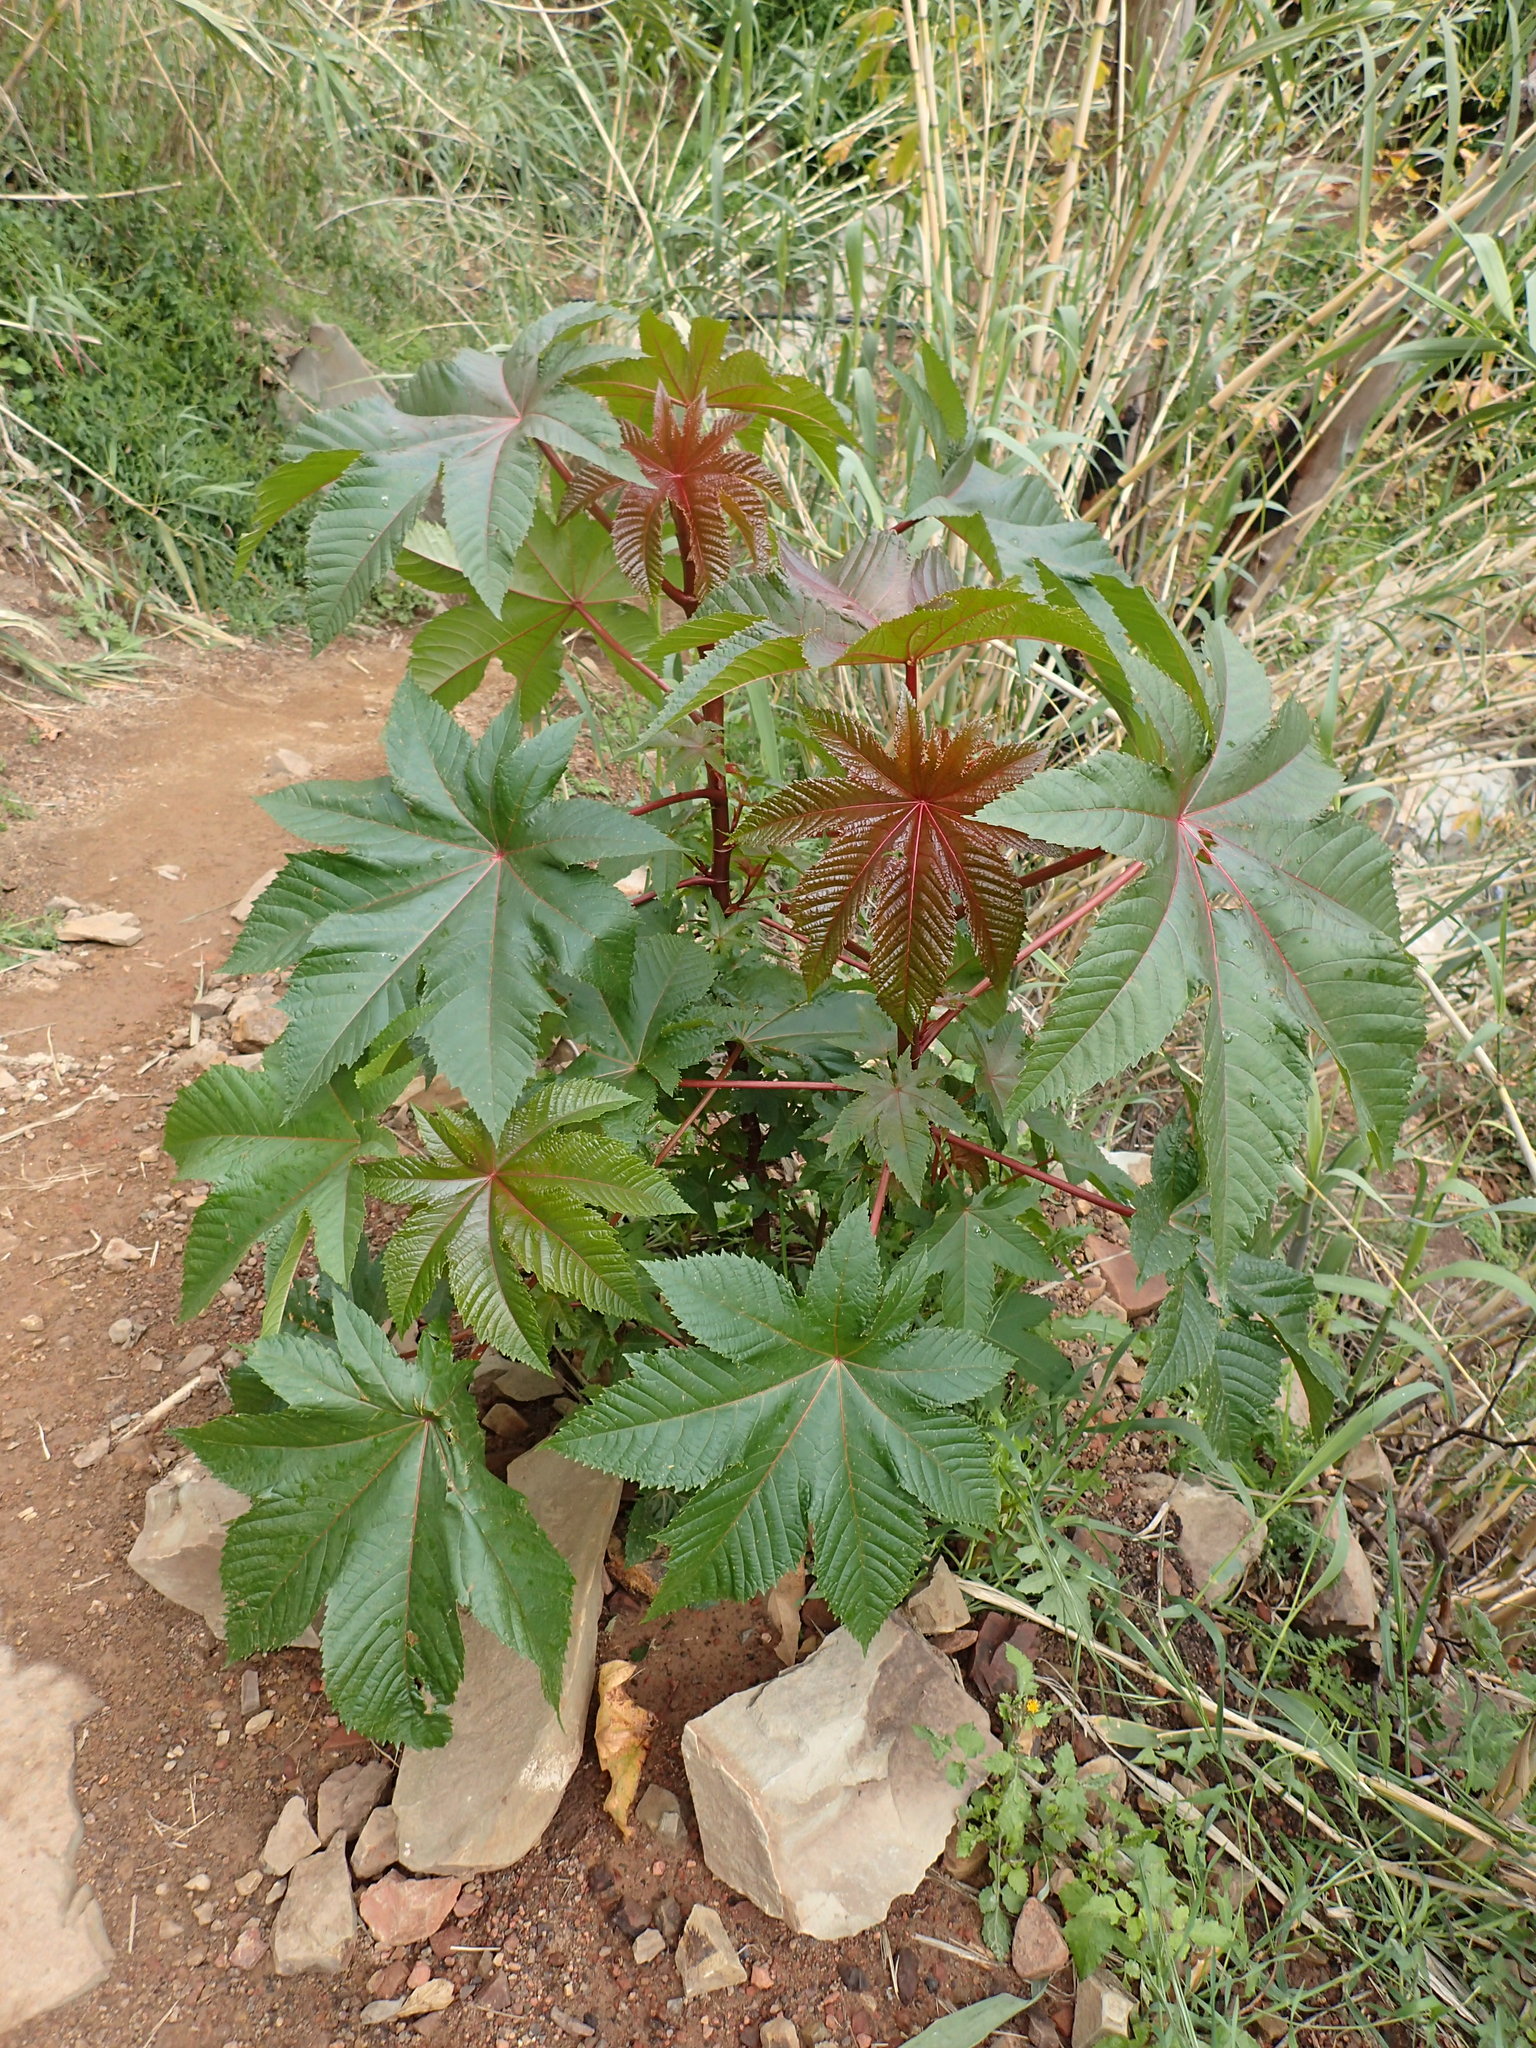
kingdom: Plantae
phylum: Tracheophyta
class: Magnoliopsida
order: Malpighiales
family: Euphorbiaceae
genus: Ricinus
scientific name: Ricinus communis
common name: Castor-oil-plant
